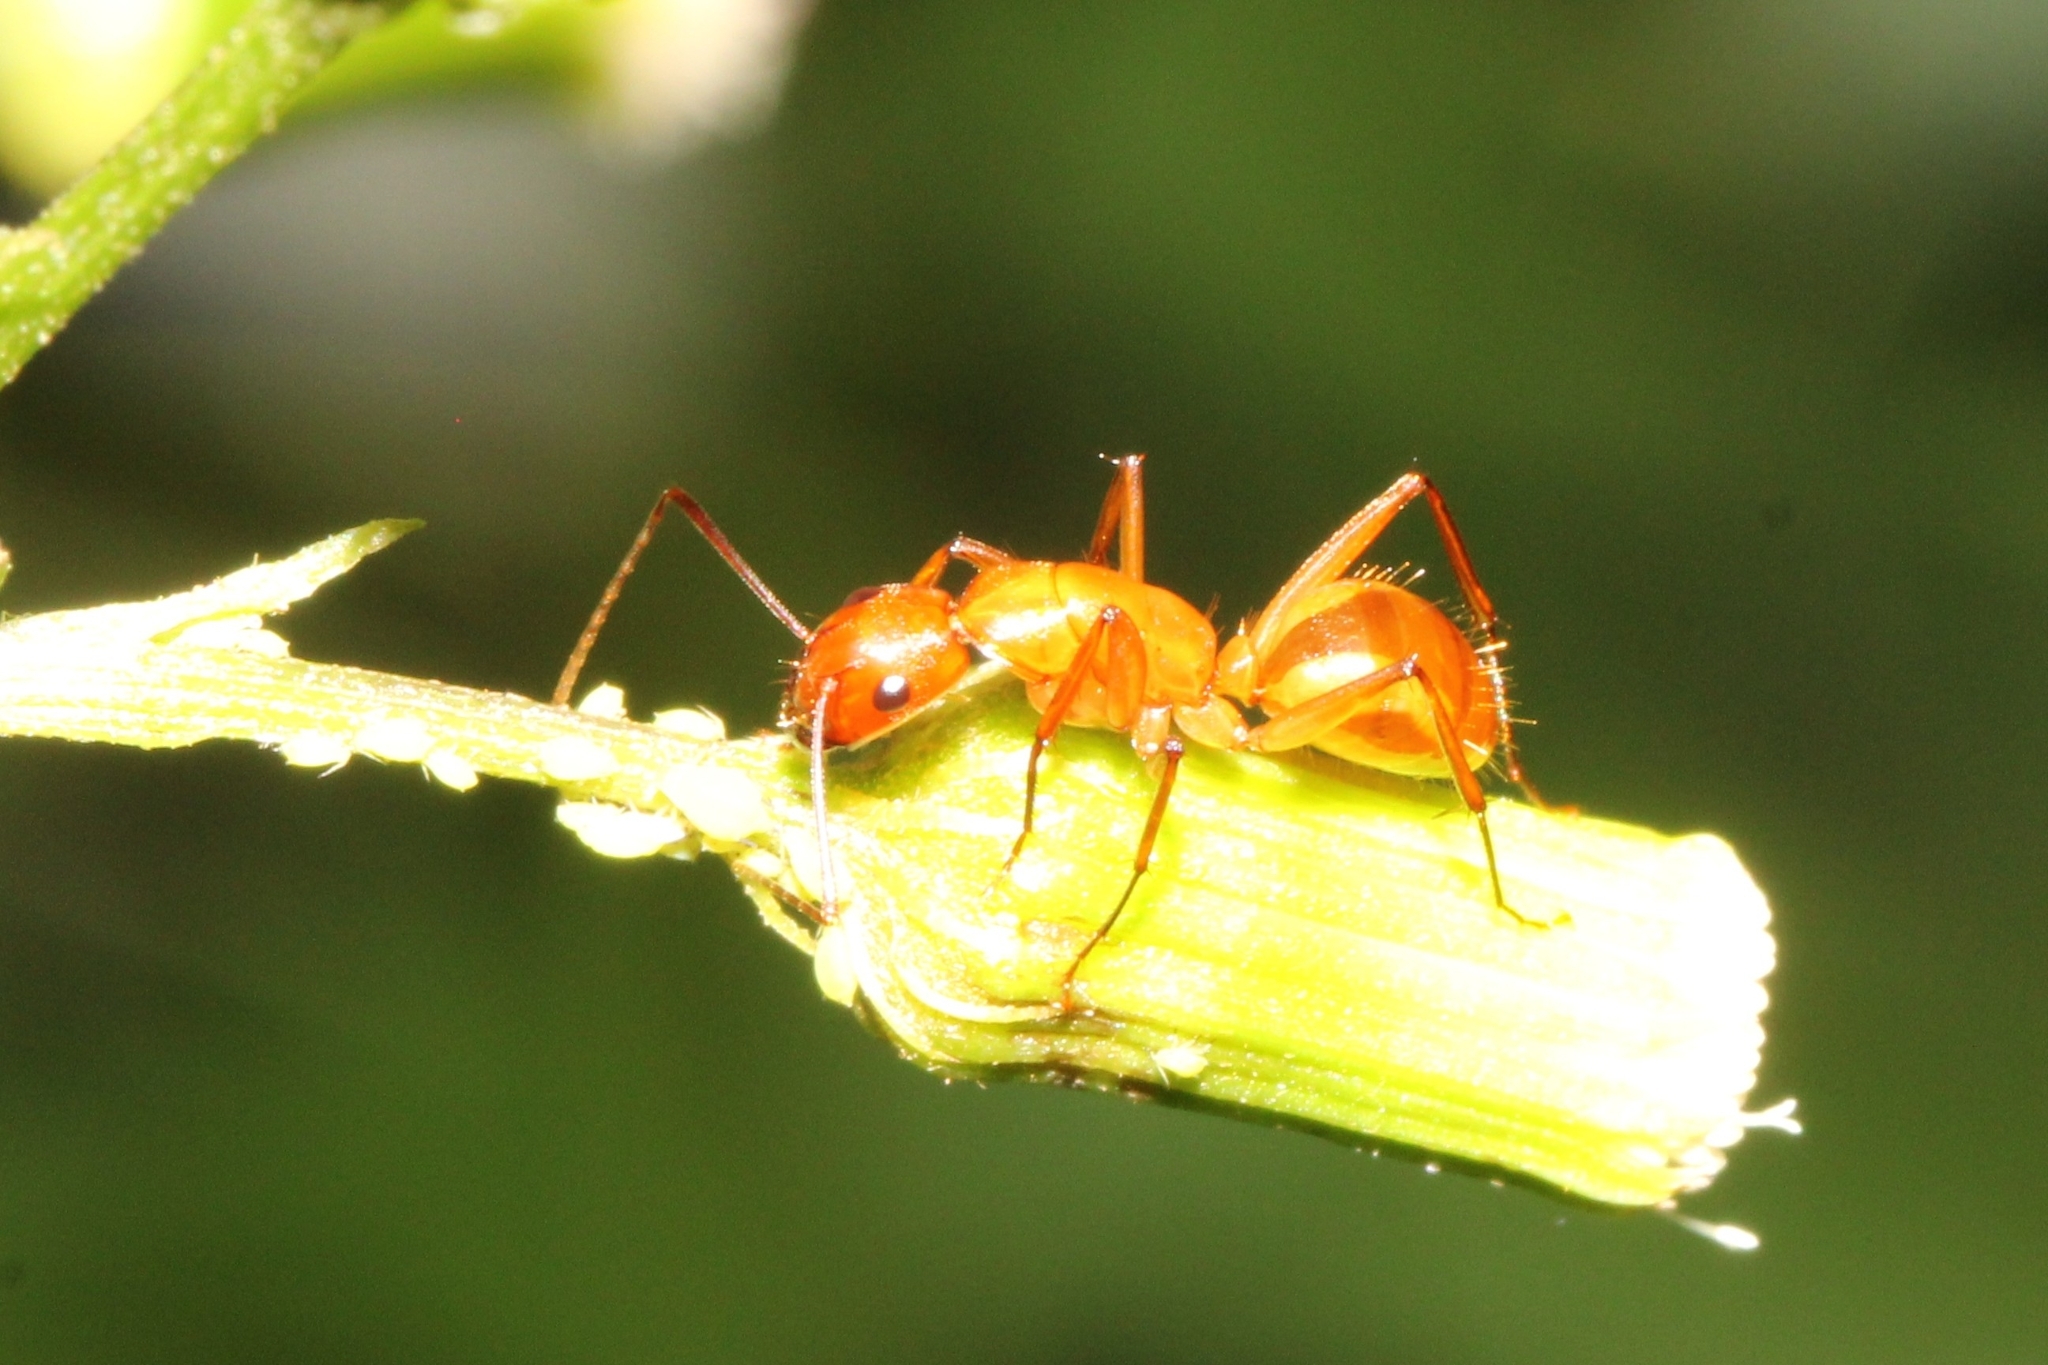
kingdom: Animalia
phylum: Arthropoda
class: Insecta
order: Hymenoptera
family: Formicidae
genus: Camponotus
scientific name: Camponotus castaneus
